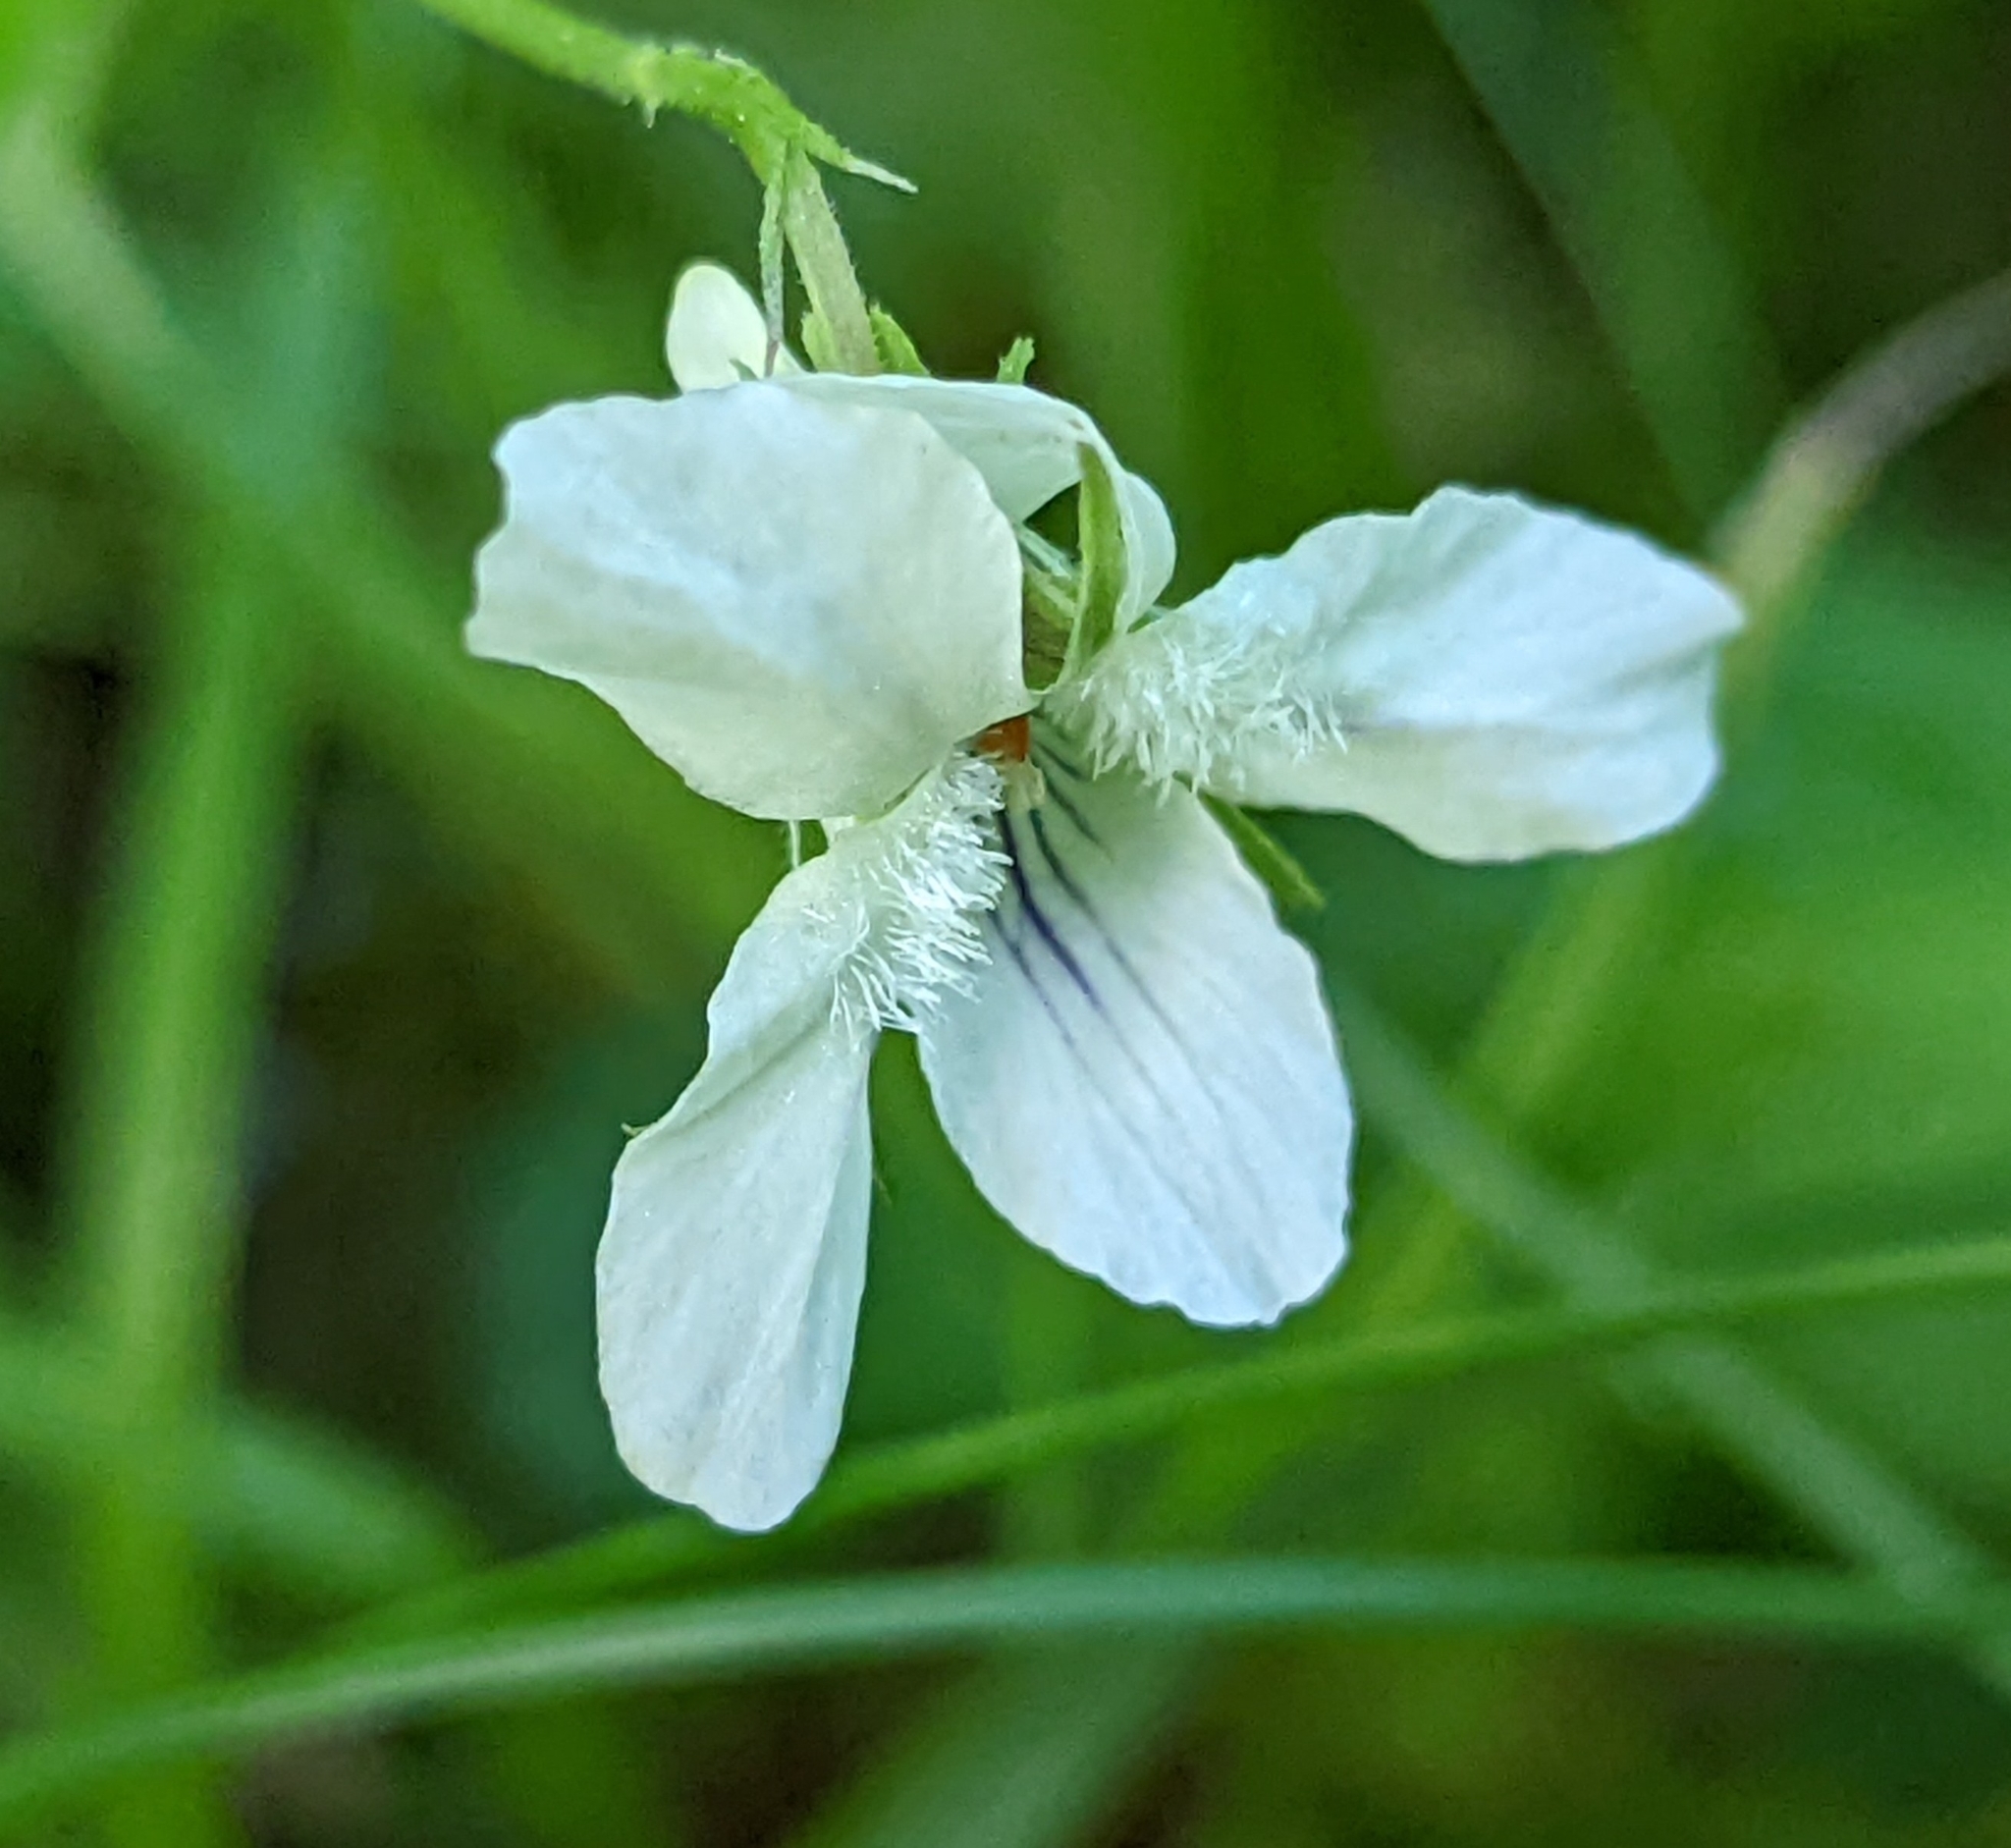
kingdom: Plantae
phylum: Tracheophyta
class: Magnoliopsida
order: Malpighiales
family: Violaceae
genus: Viola
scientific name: Viola striata
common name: Cream violet
